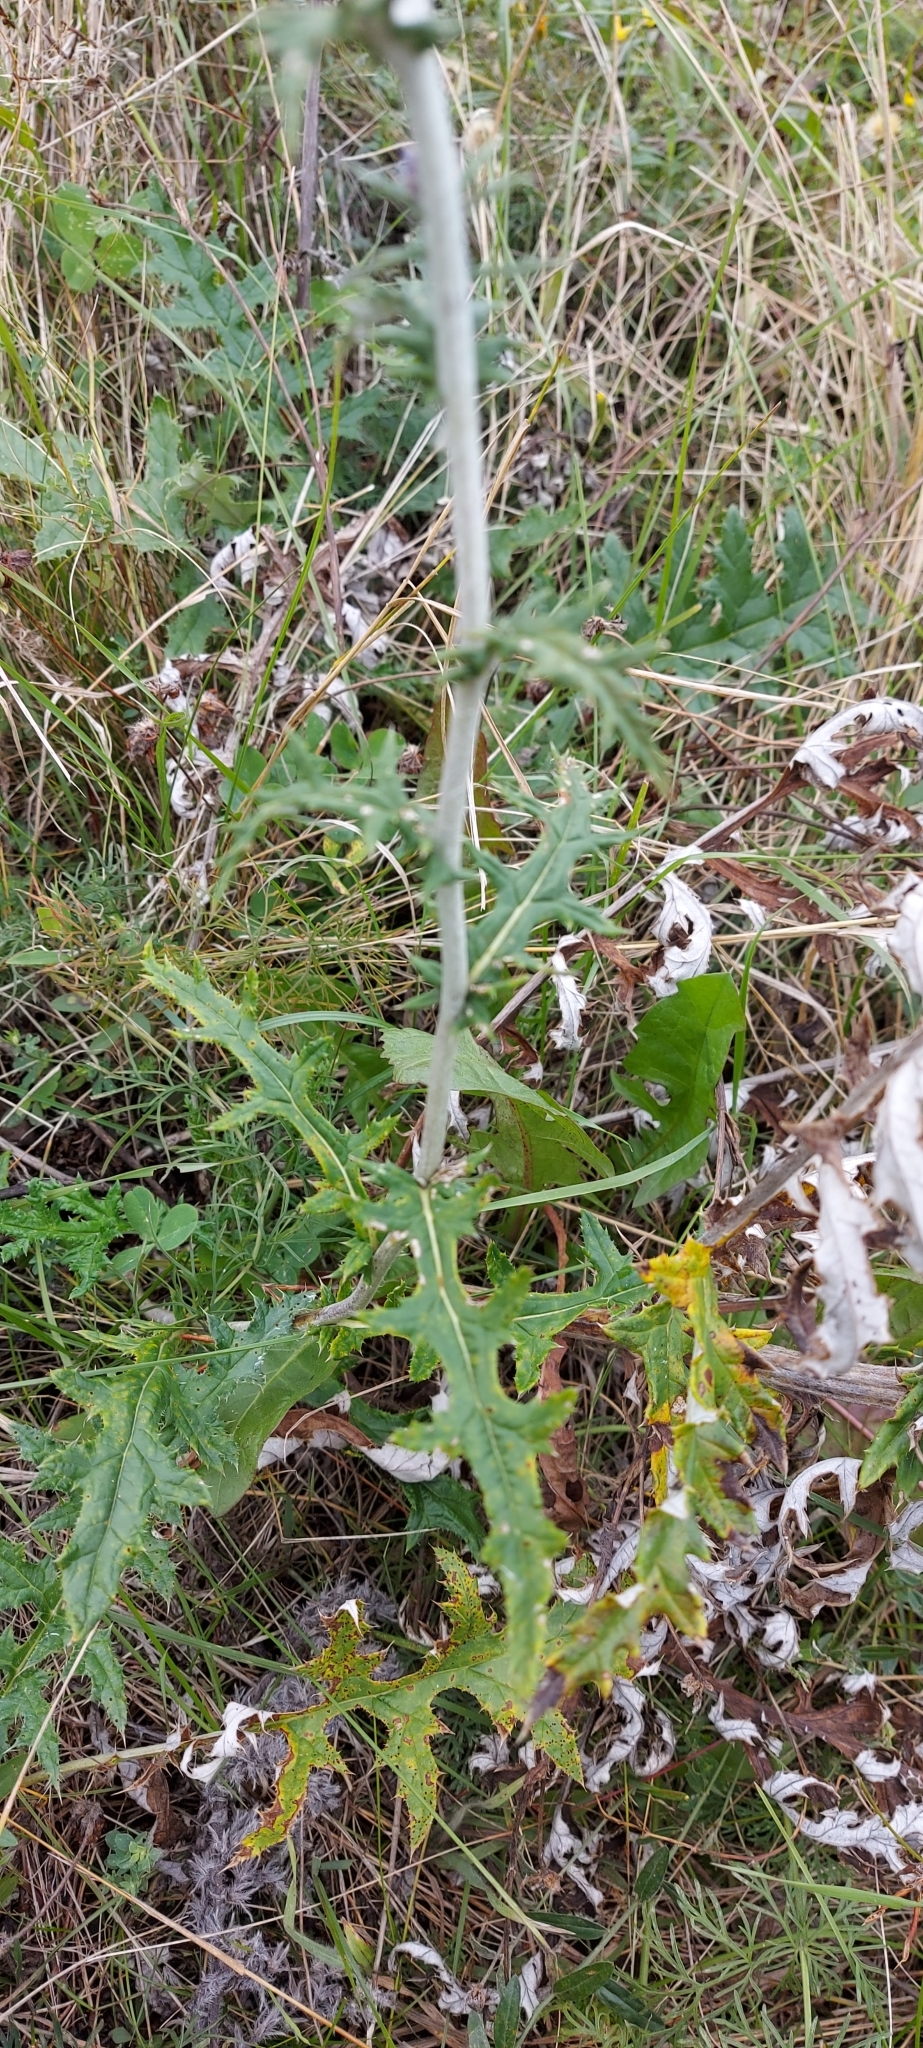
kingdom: Plantae
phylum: Tracheophyta
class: Magnoliopsida
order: Asterales
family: Asteraceae
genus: Echinops
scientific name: Echinops ritro
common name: Globe thistle
